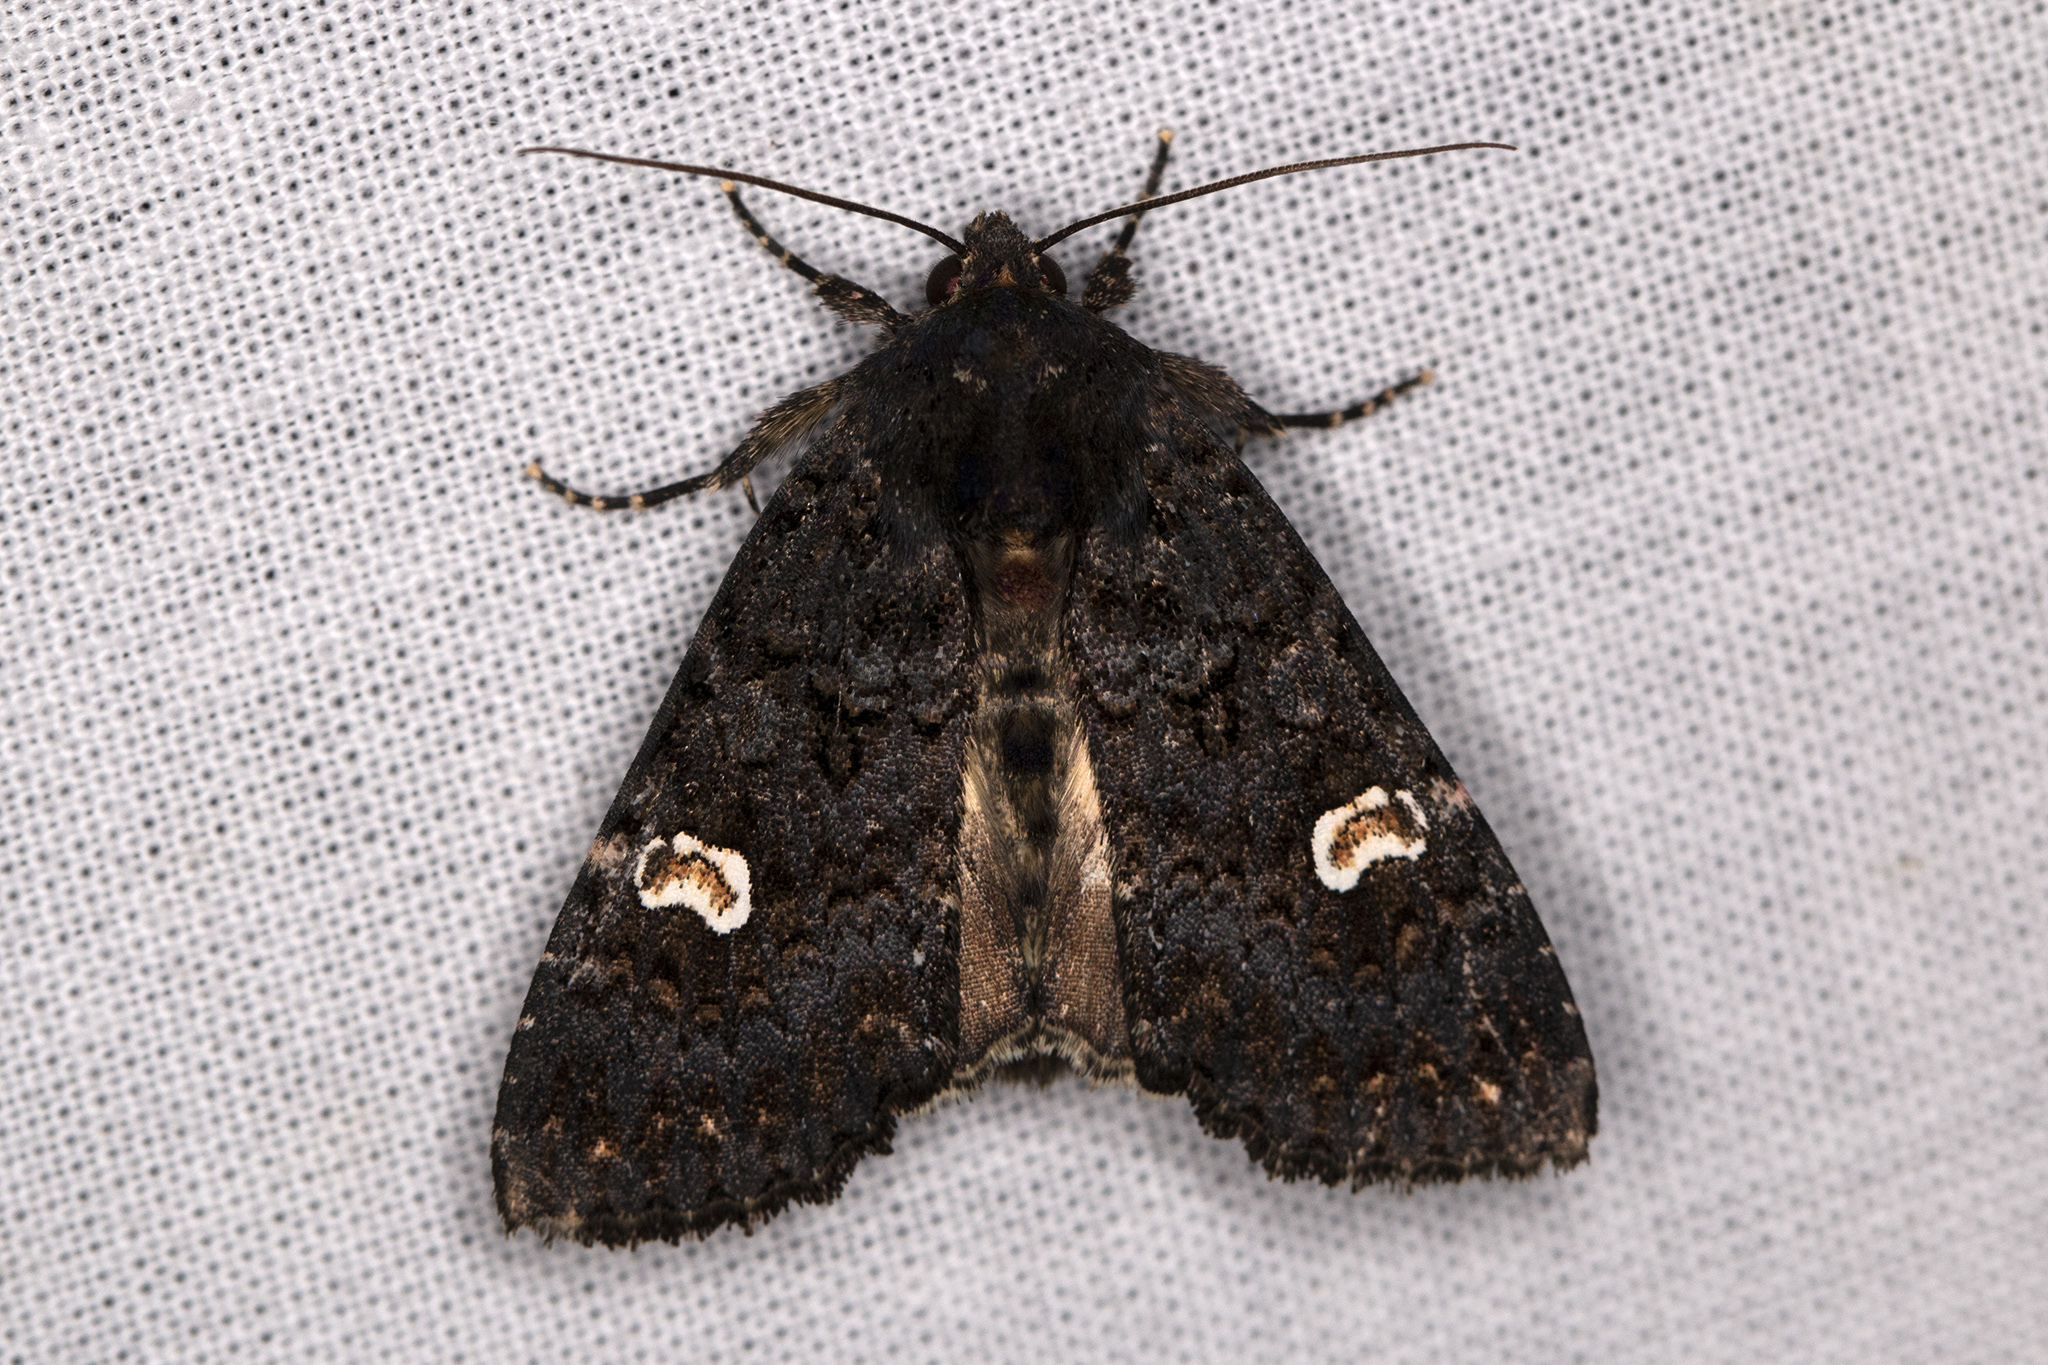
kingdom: Animalia
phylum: Arthropoda
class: Insecta
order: Lepidoptera
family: Noctuidae
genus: Melanchra
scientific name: Melanchra persicariae
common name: Dot moth
